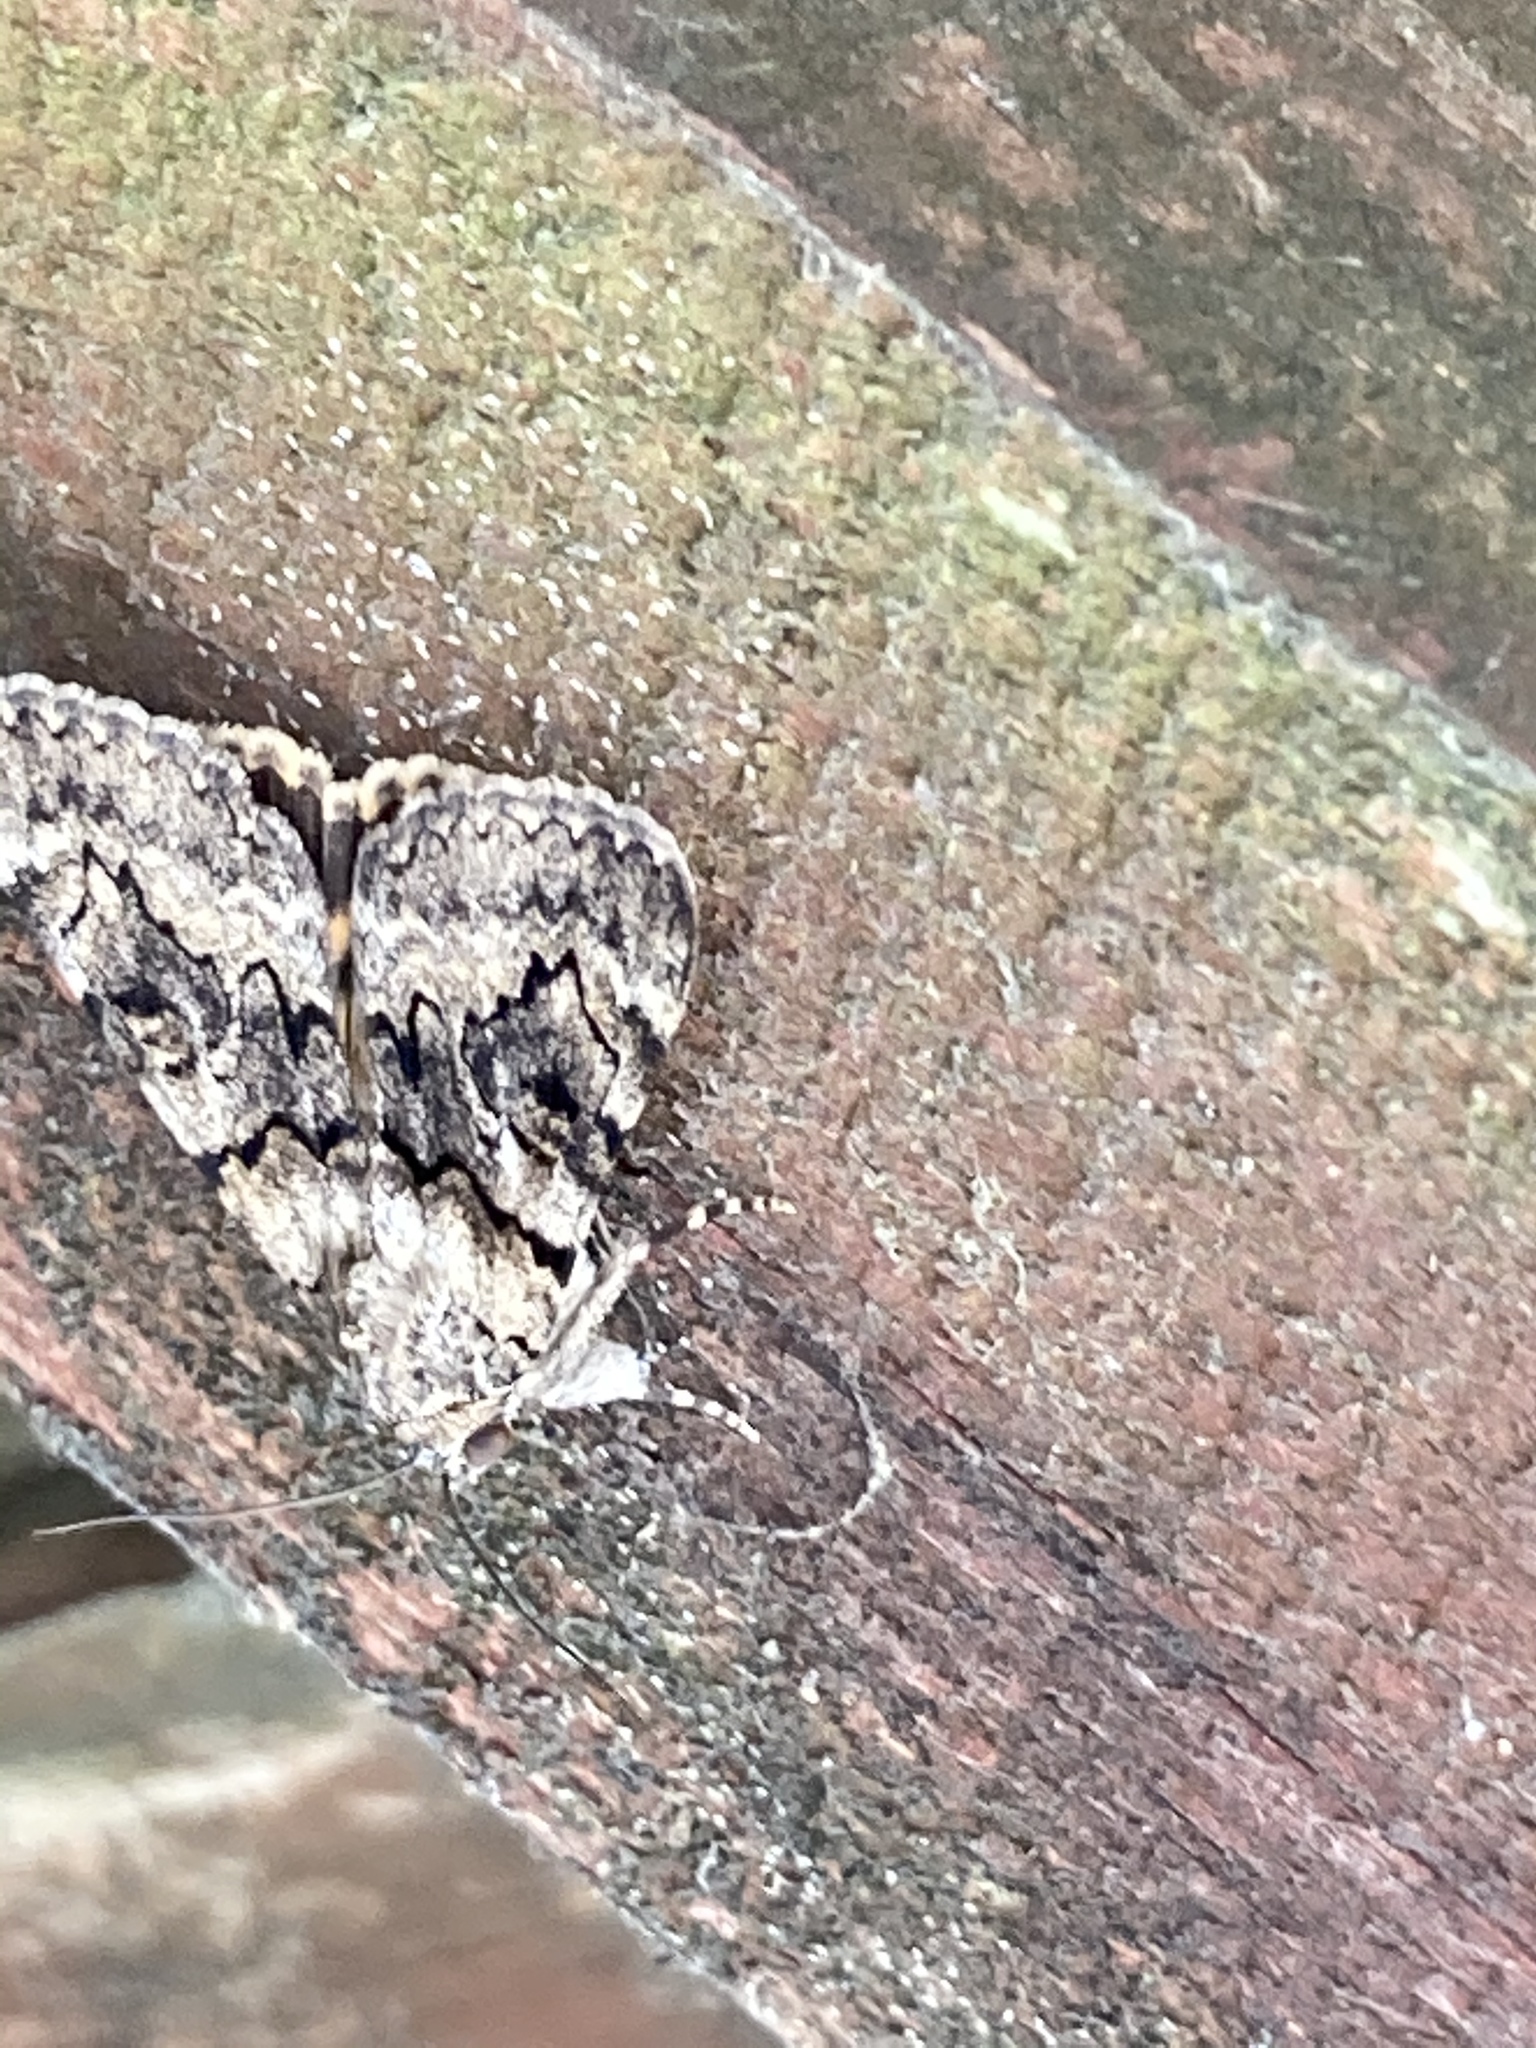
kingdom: Animalia
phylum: Arthropoda
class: Insecta
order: Lepidoptera
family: Erebidae
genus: Catocala
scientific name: Catocala nymphagoga
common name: Oak yellow underwing
